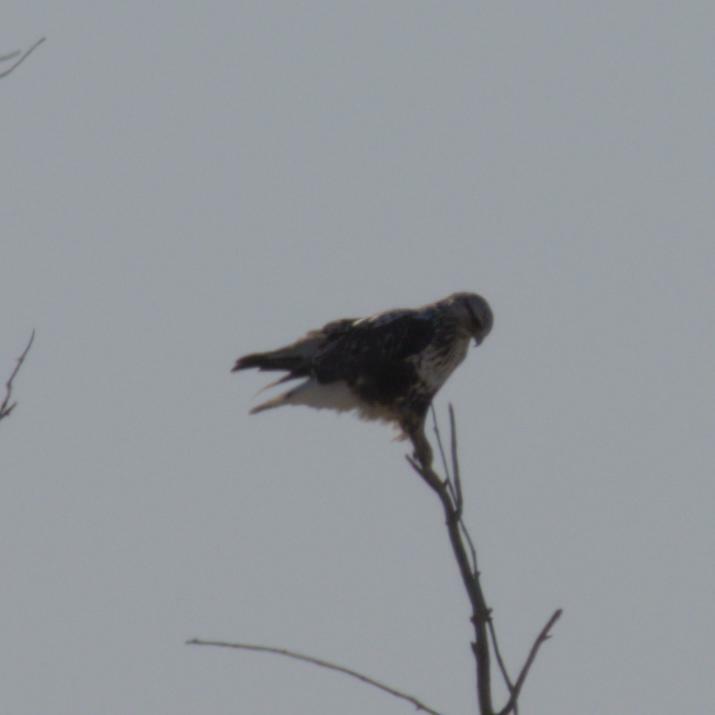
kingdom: Animalia
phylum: Chordata
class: Aves
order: Accipitriformes
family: Accipitridae
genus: Buteo
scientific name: Buteo lagopus
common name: Rough-legged buzzard
